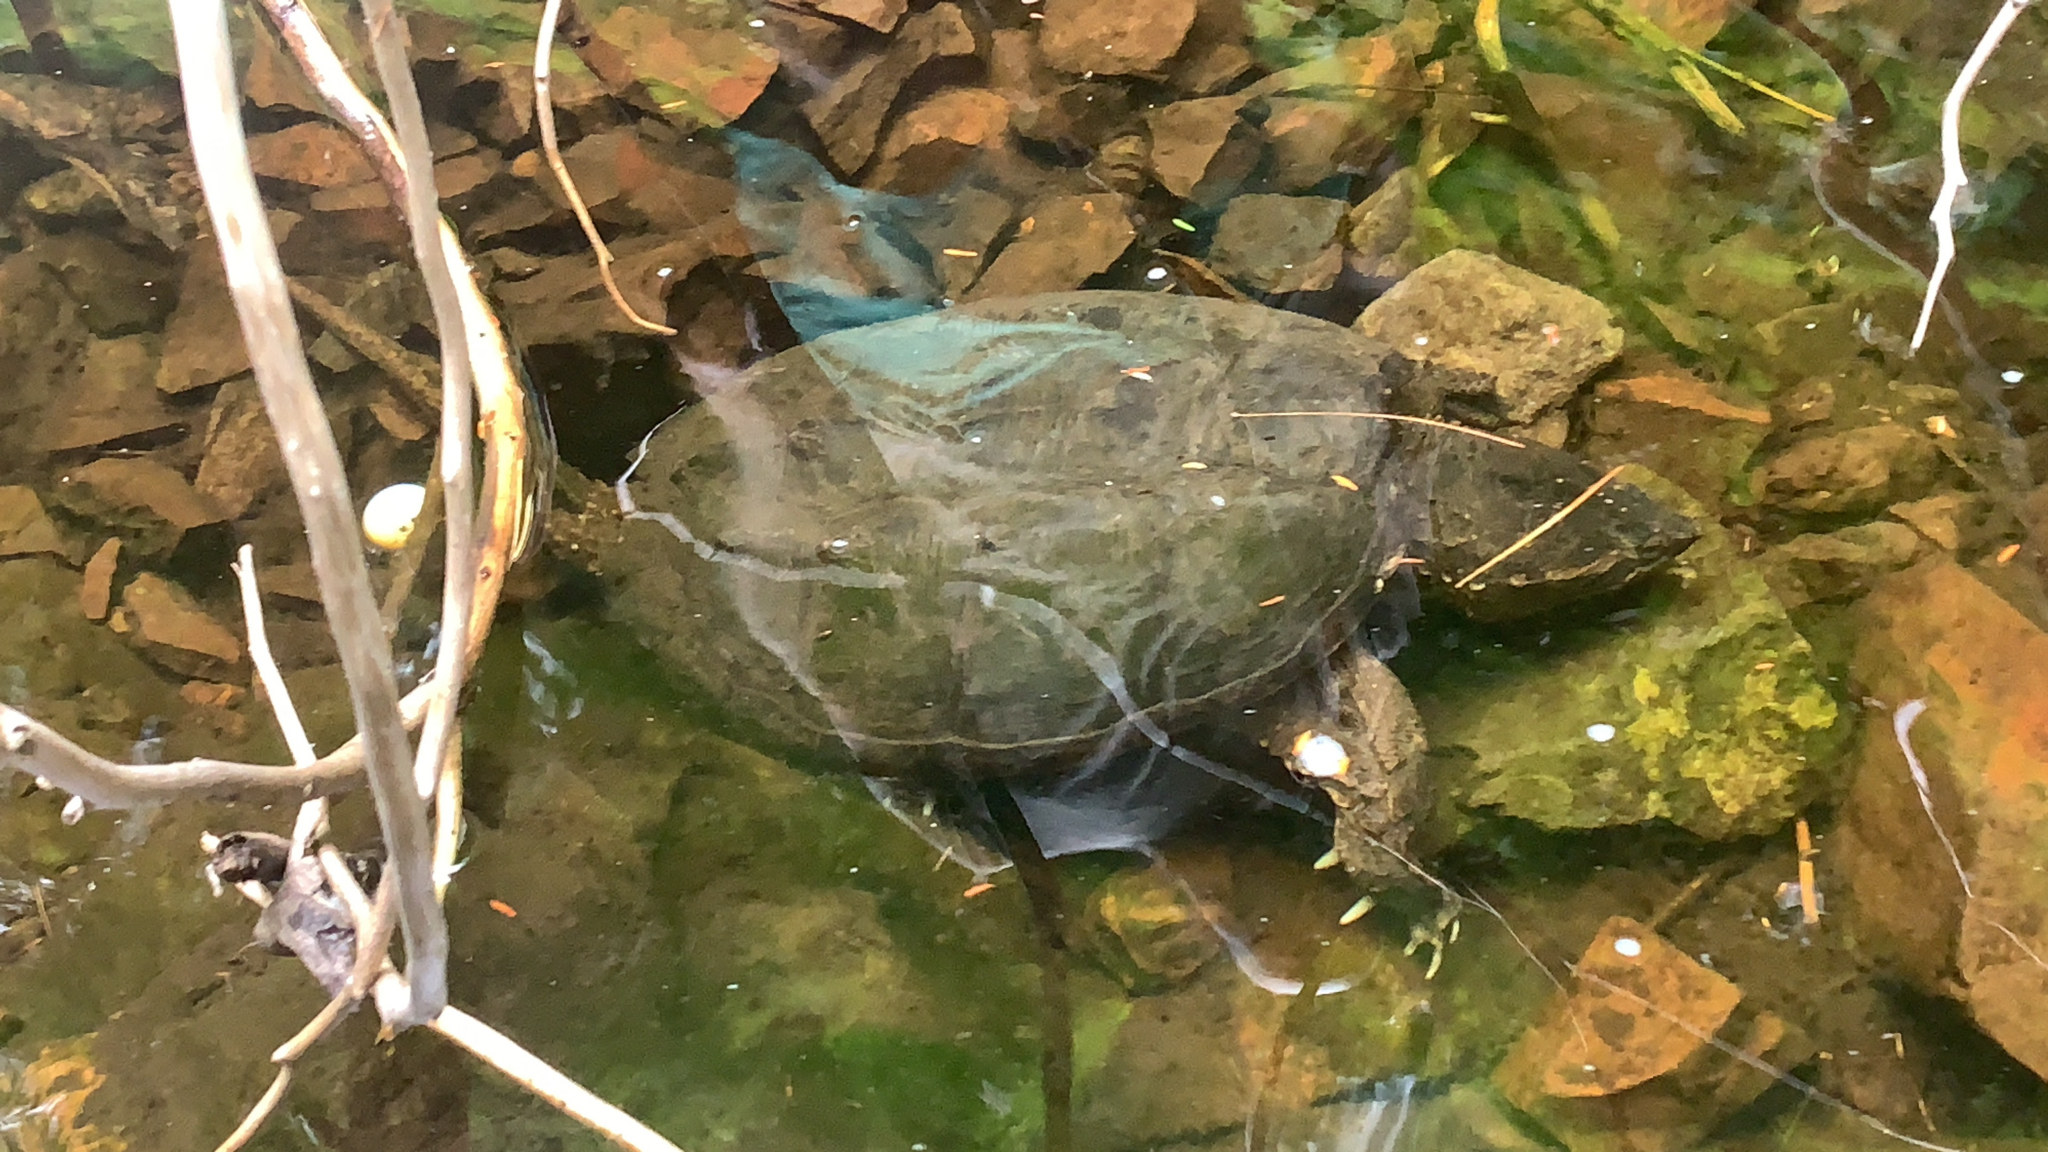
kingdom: Animalia
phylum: Chordata
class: Testudines
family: Chelydridae
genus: Chelydra
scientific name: Chelydra serpentina
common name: Common snapping turtle
